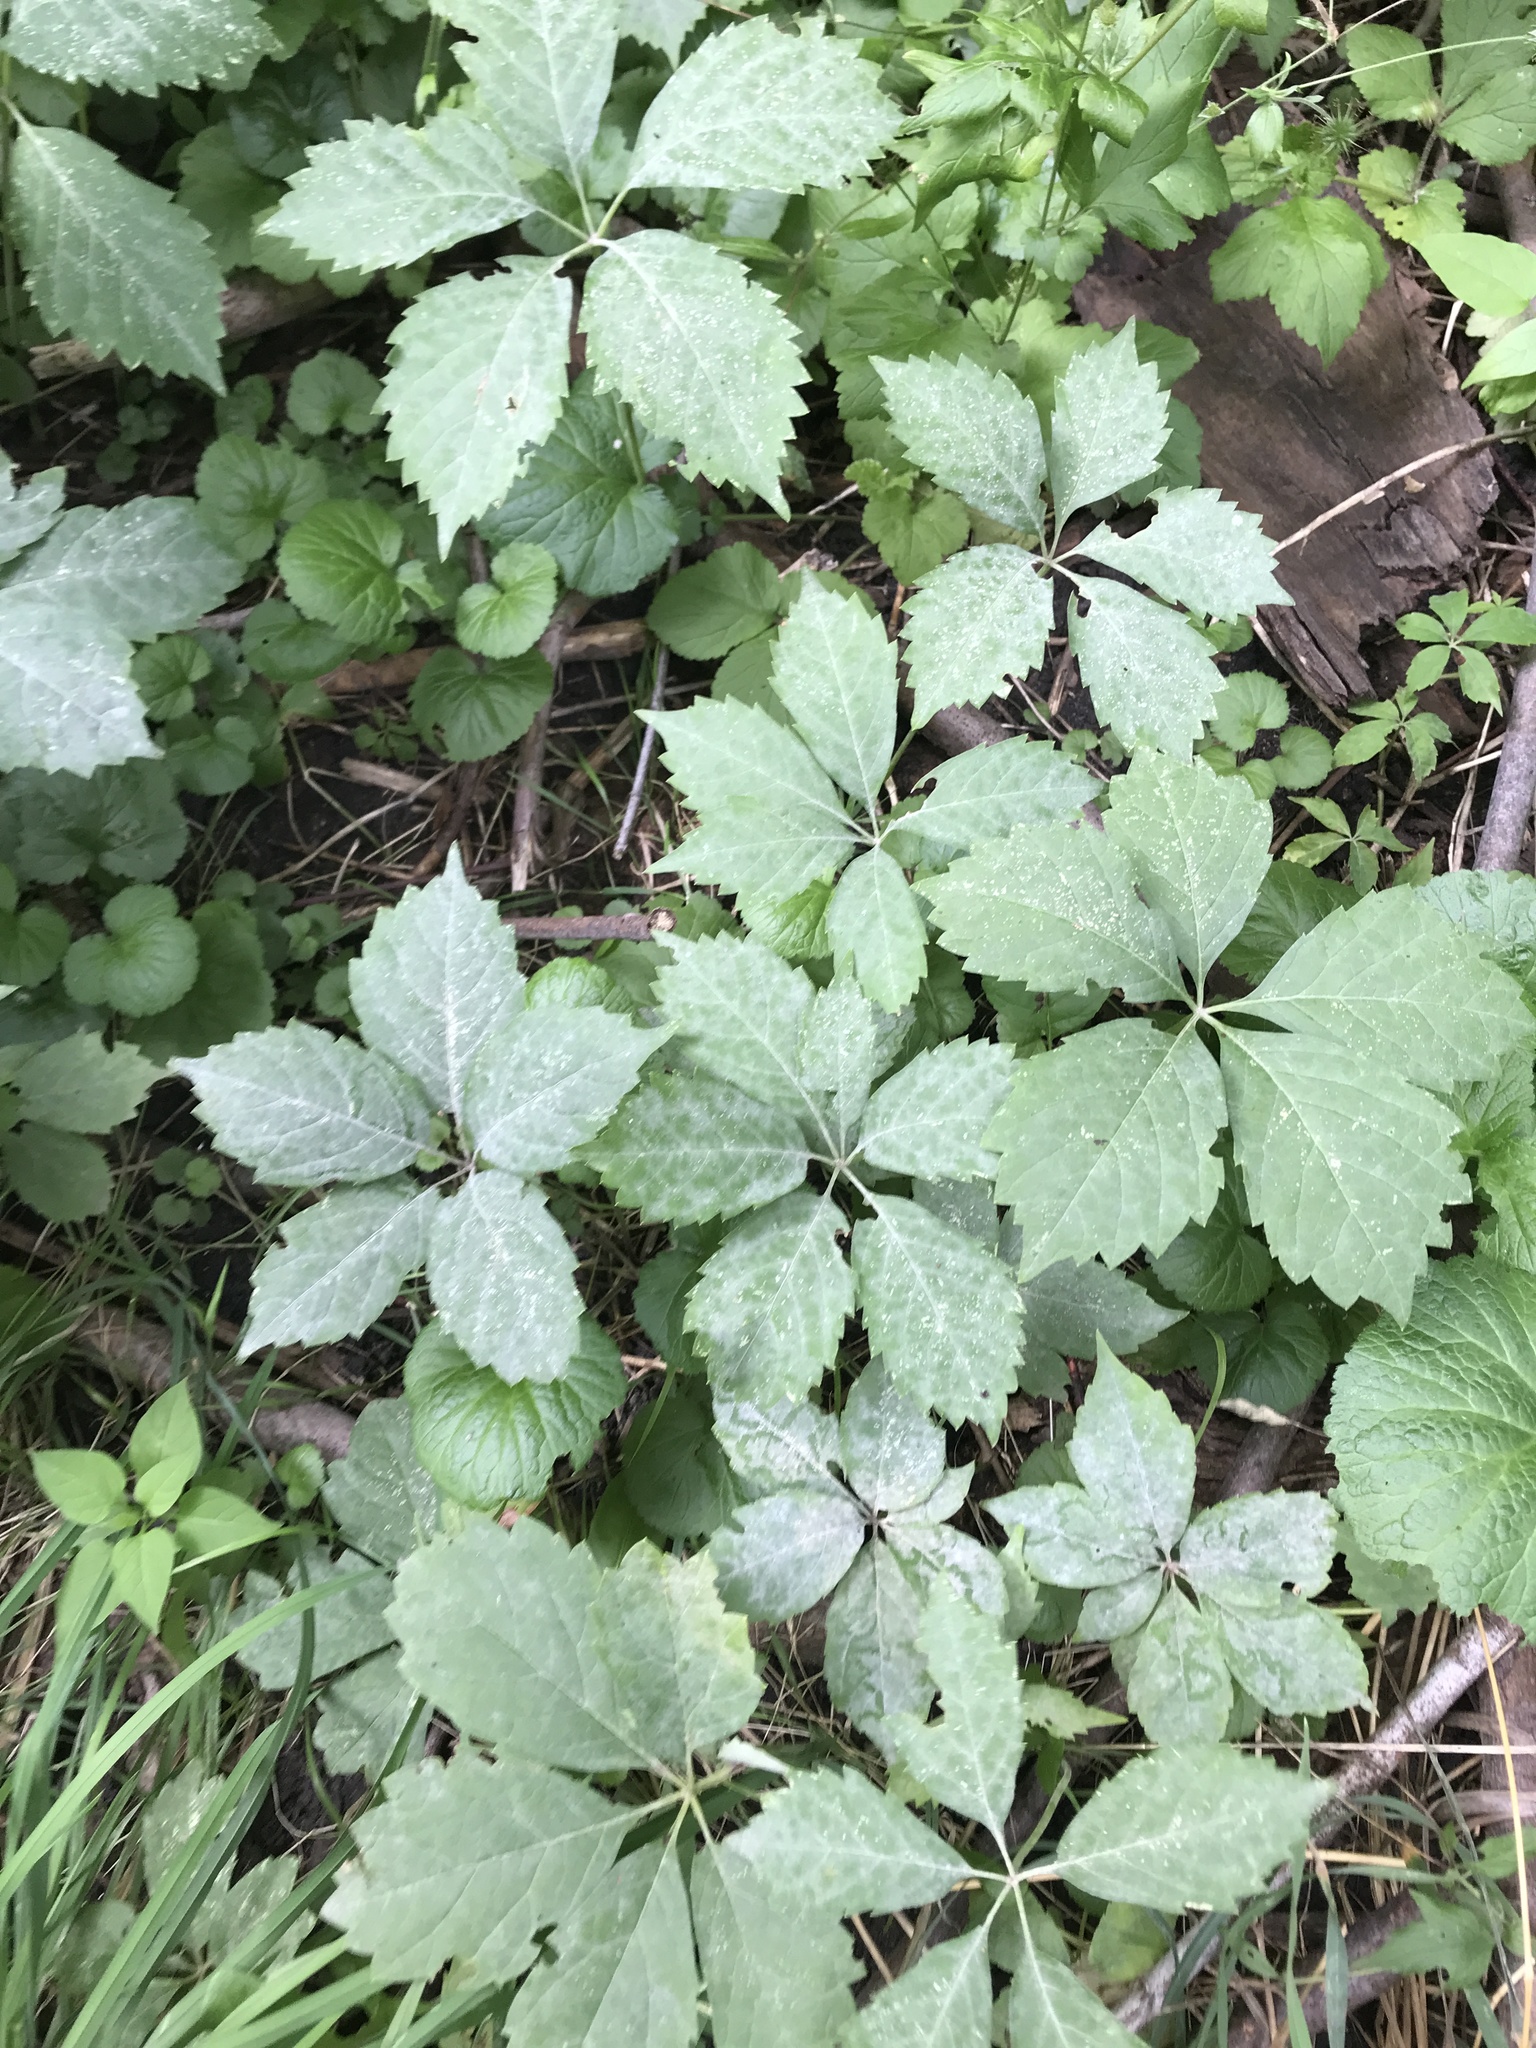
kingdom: Plantae
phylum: Tracheophyta
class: Magnoliopsida
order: Vitales
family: Vitaceae
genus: Parthenocissus
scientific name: Parthenocissus quinquefolia
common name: Virginia-creeper
